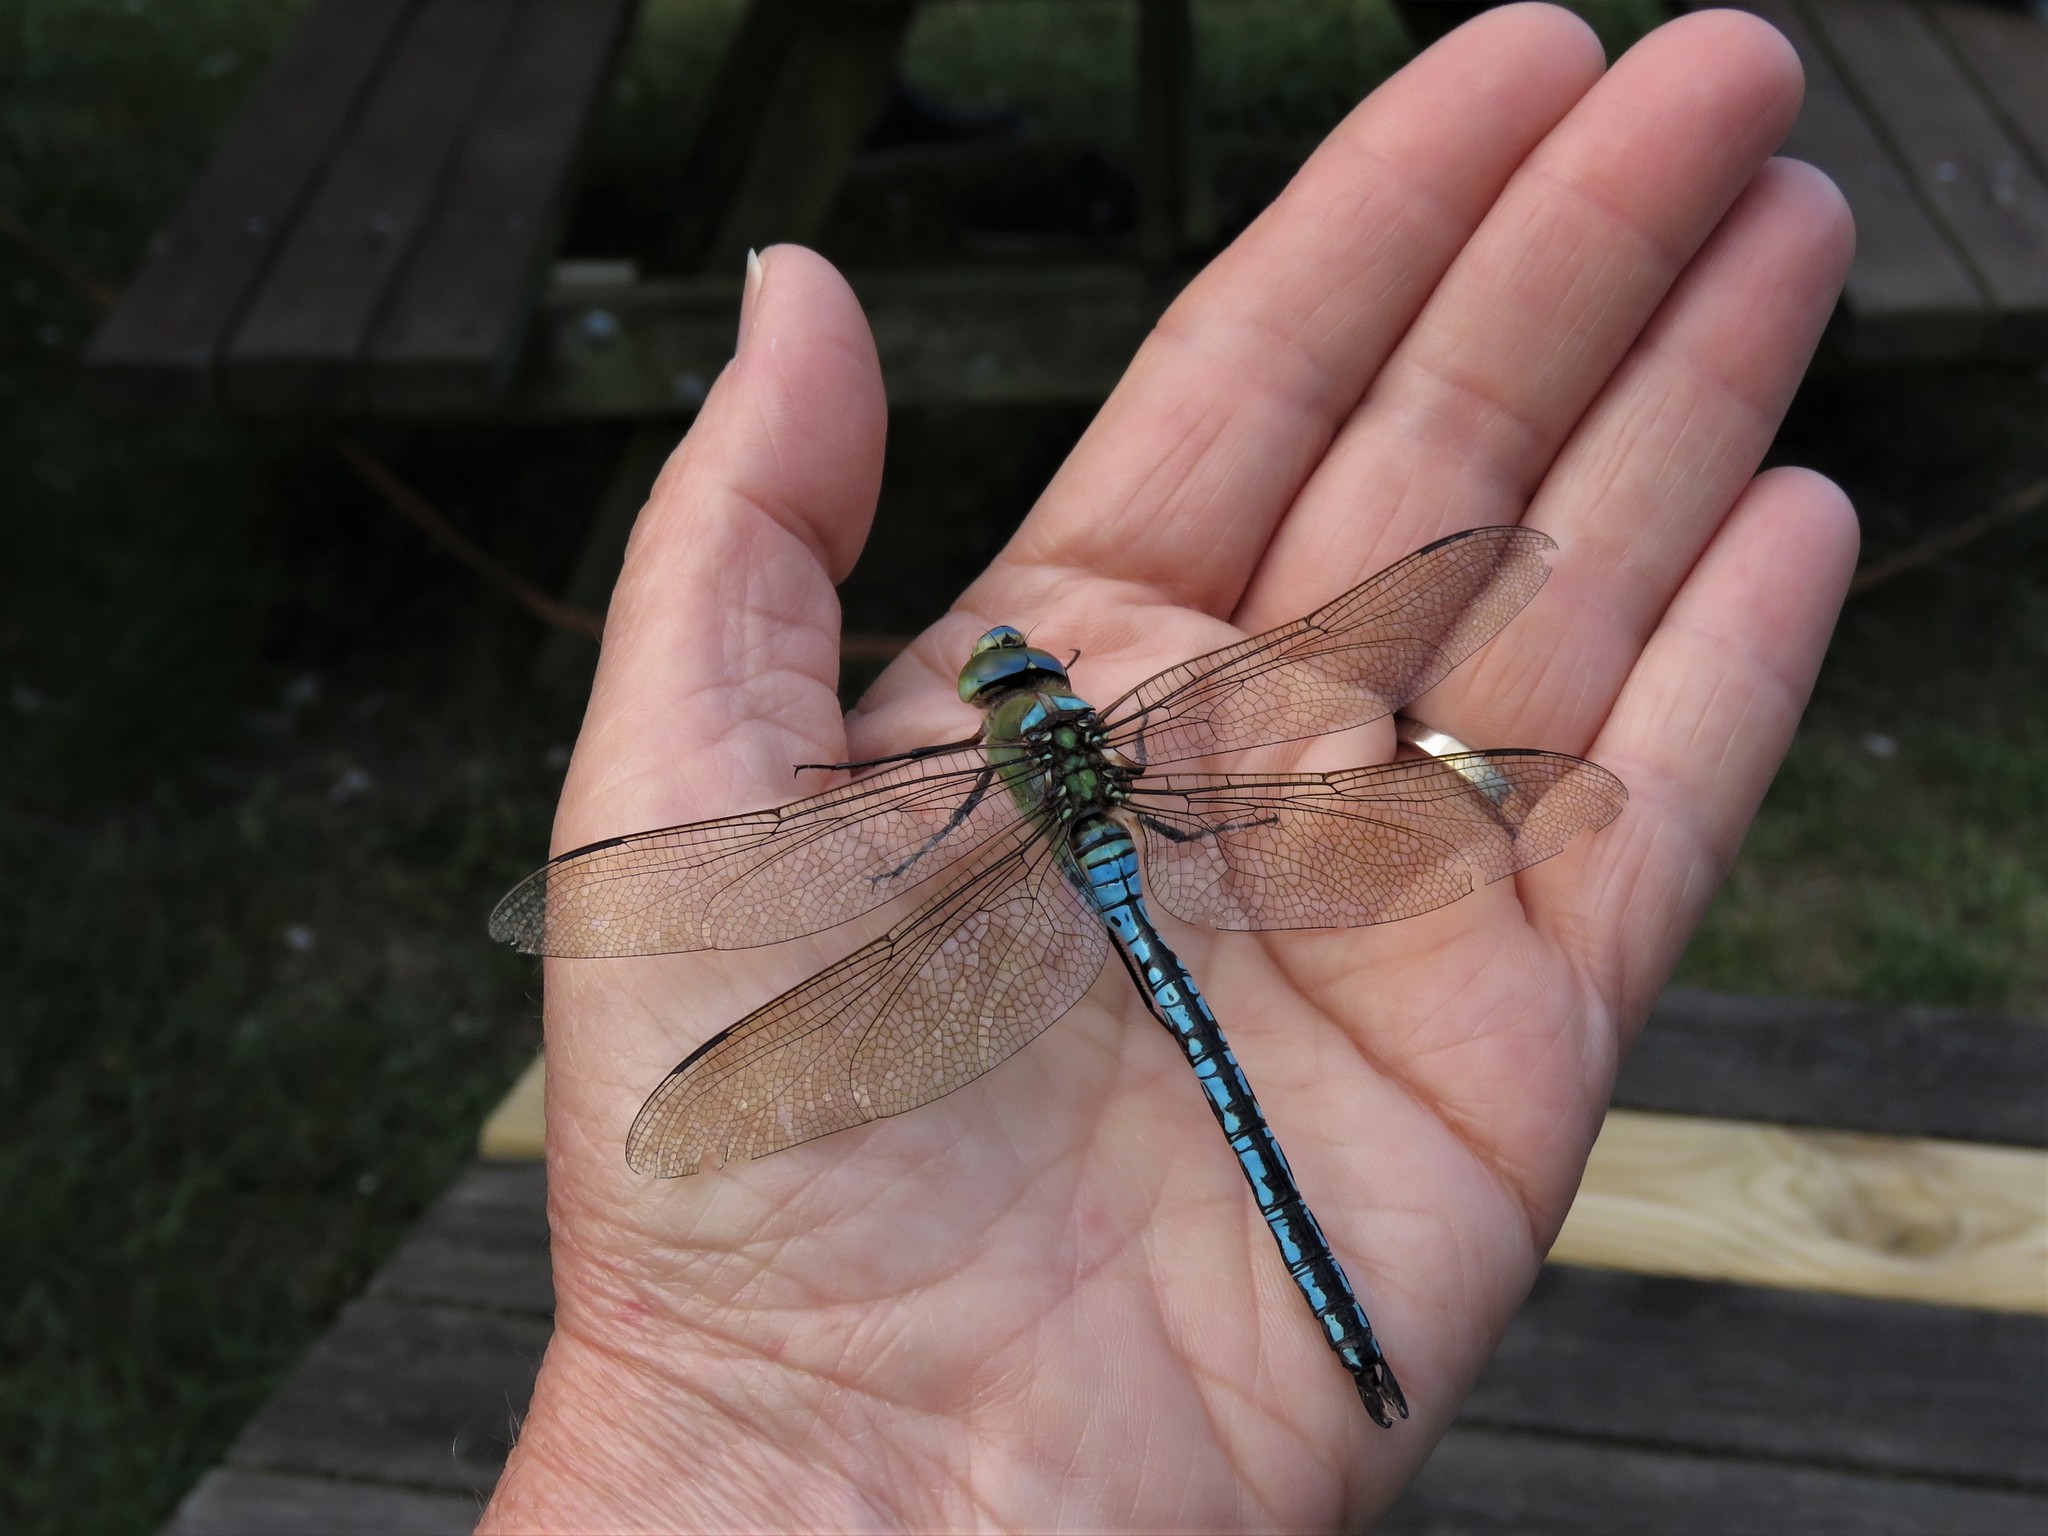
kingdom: Animalia
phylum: Arthropoda
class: Insecta
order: Odonata
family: Aeshnidae
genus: Anax
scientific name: Anax imperator
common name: Emperor dragonfly
